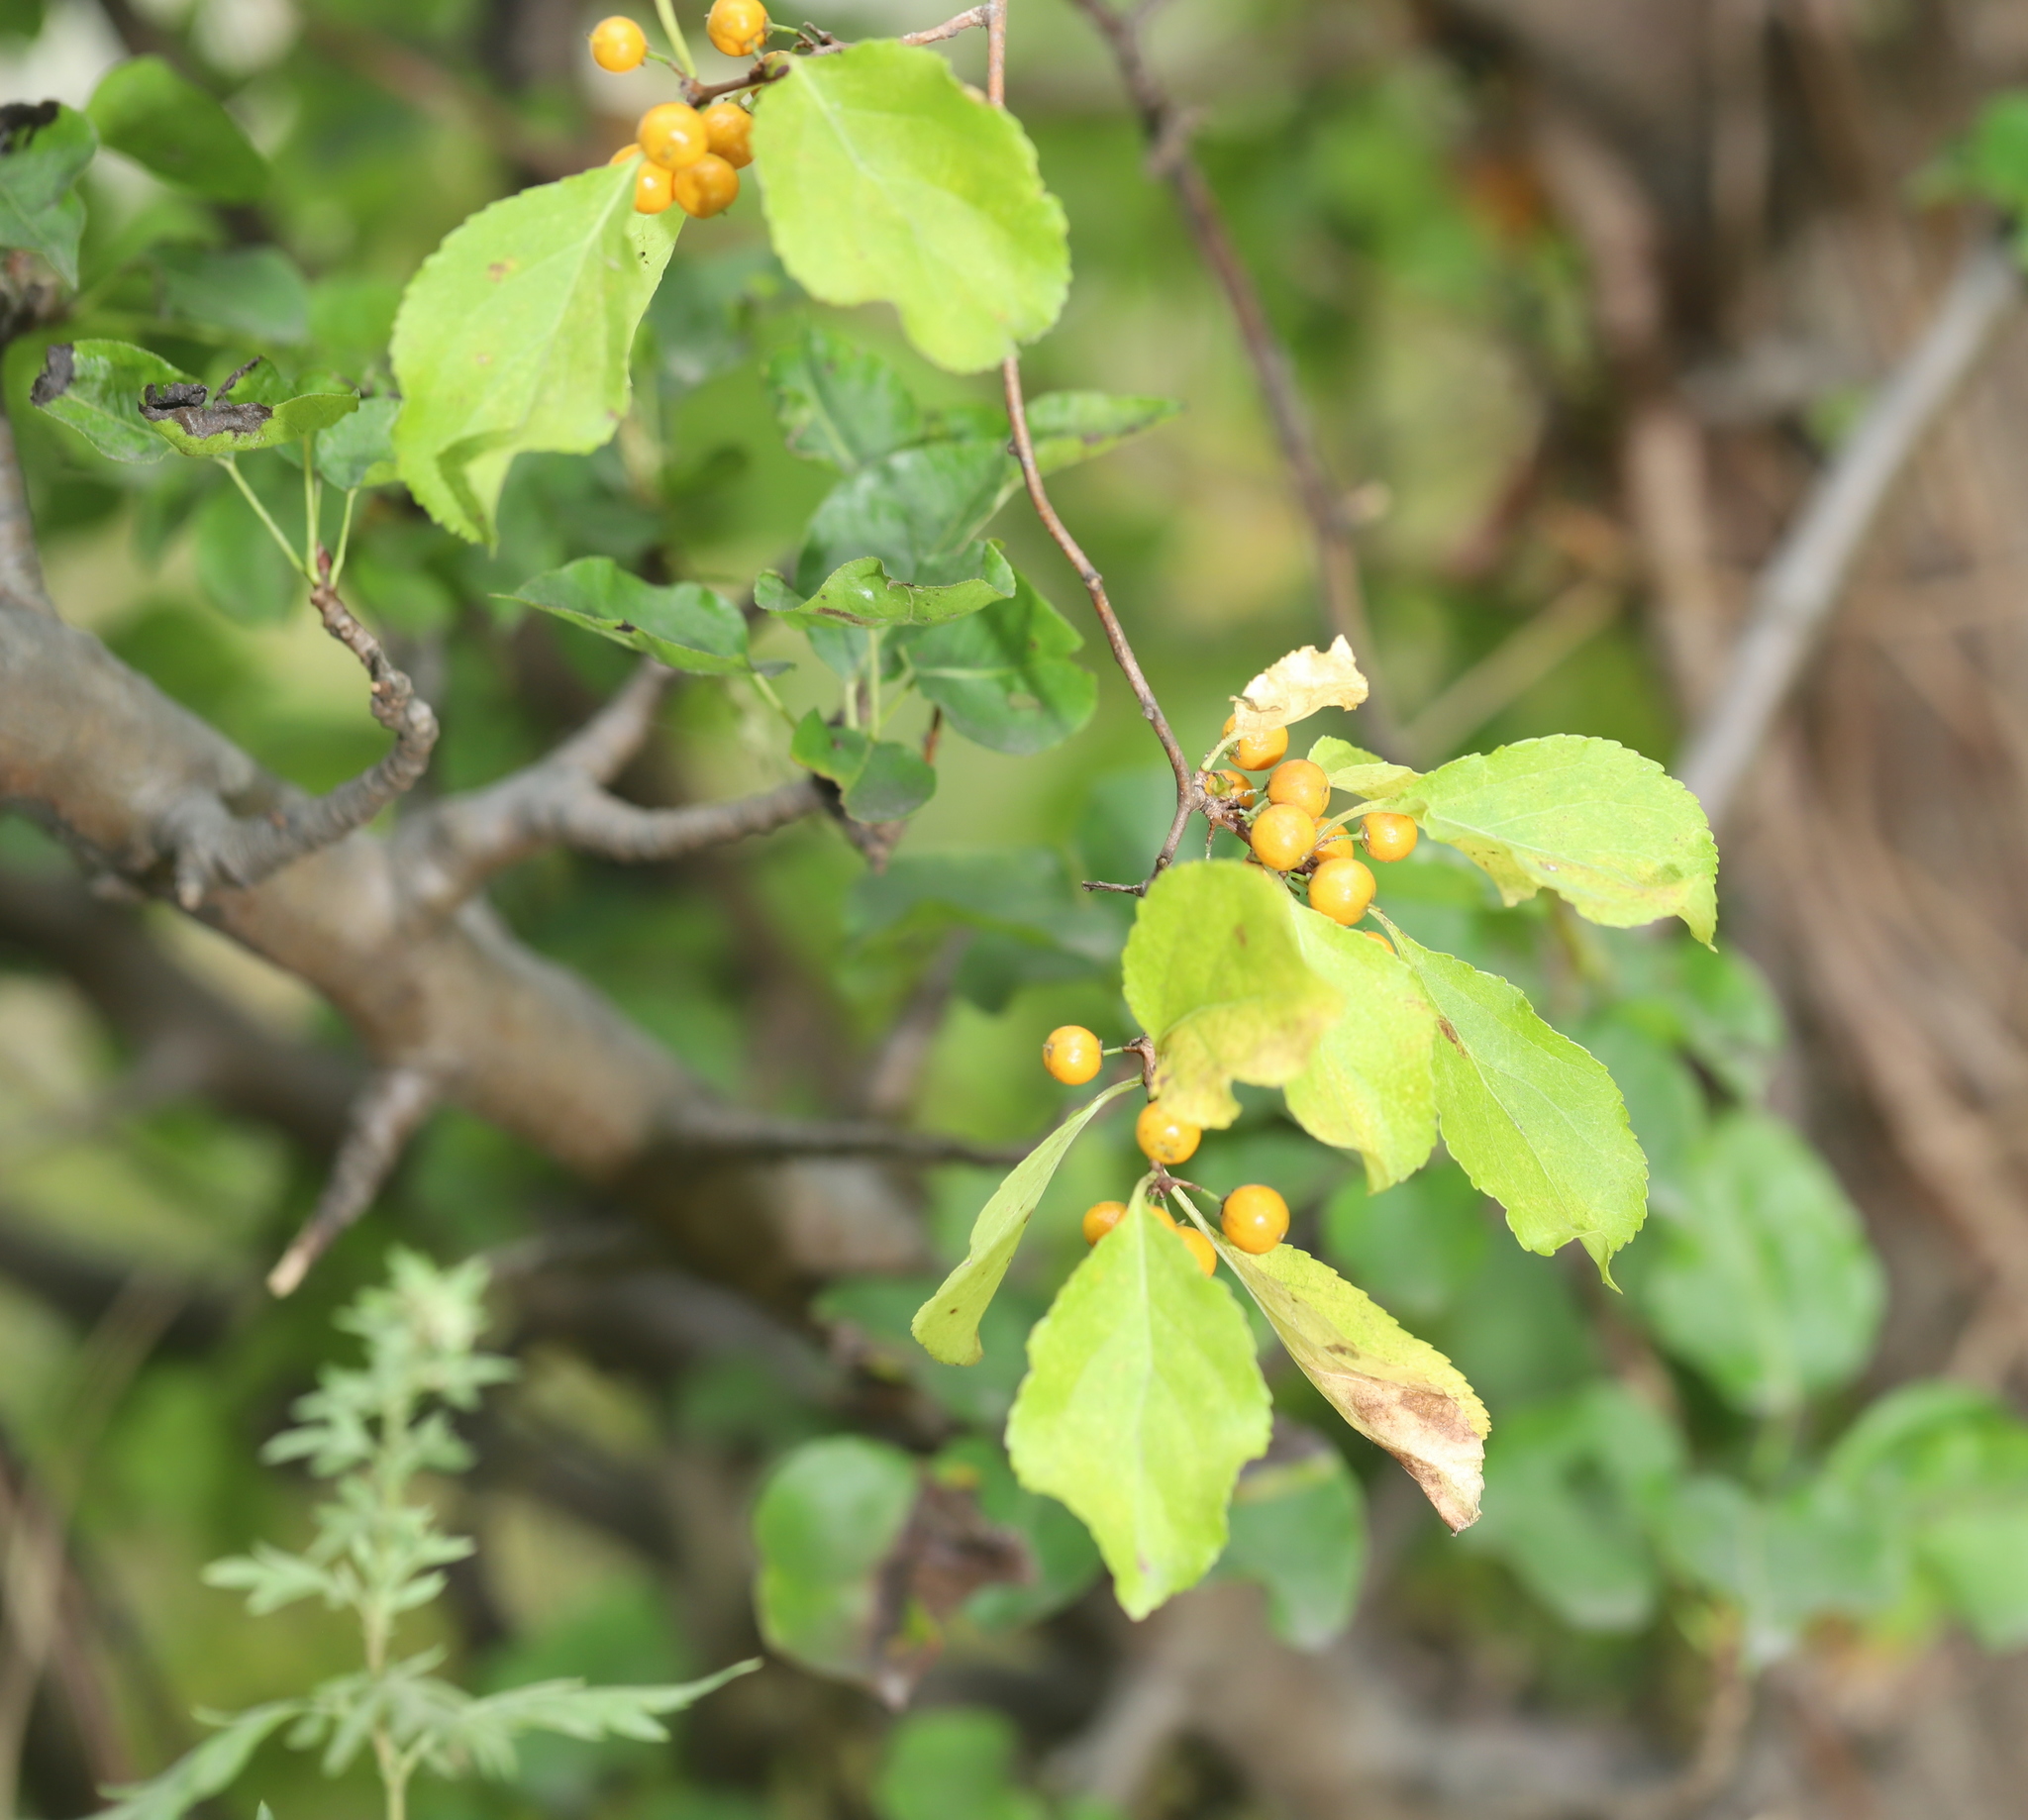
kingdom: Plantae
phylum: Tracheophyta
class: Magnoliopsida
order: Celastrales
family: Celastraceae
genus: Celastrus
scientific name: Celastrus orbiculatus
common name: Oriental bittersweet
